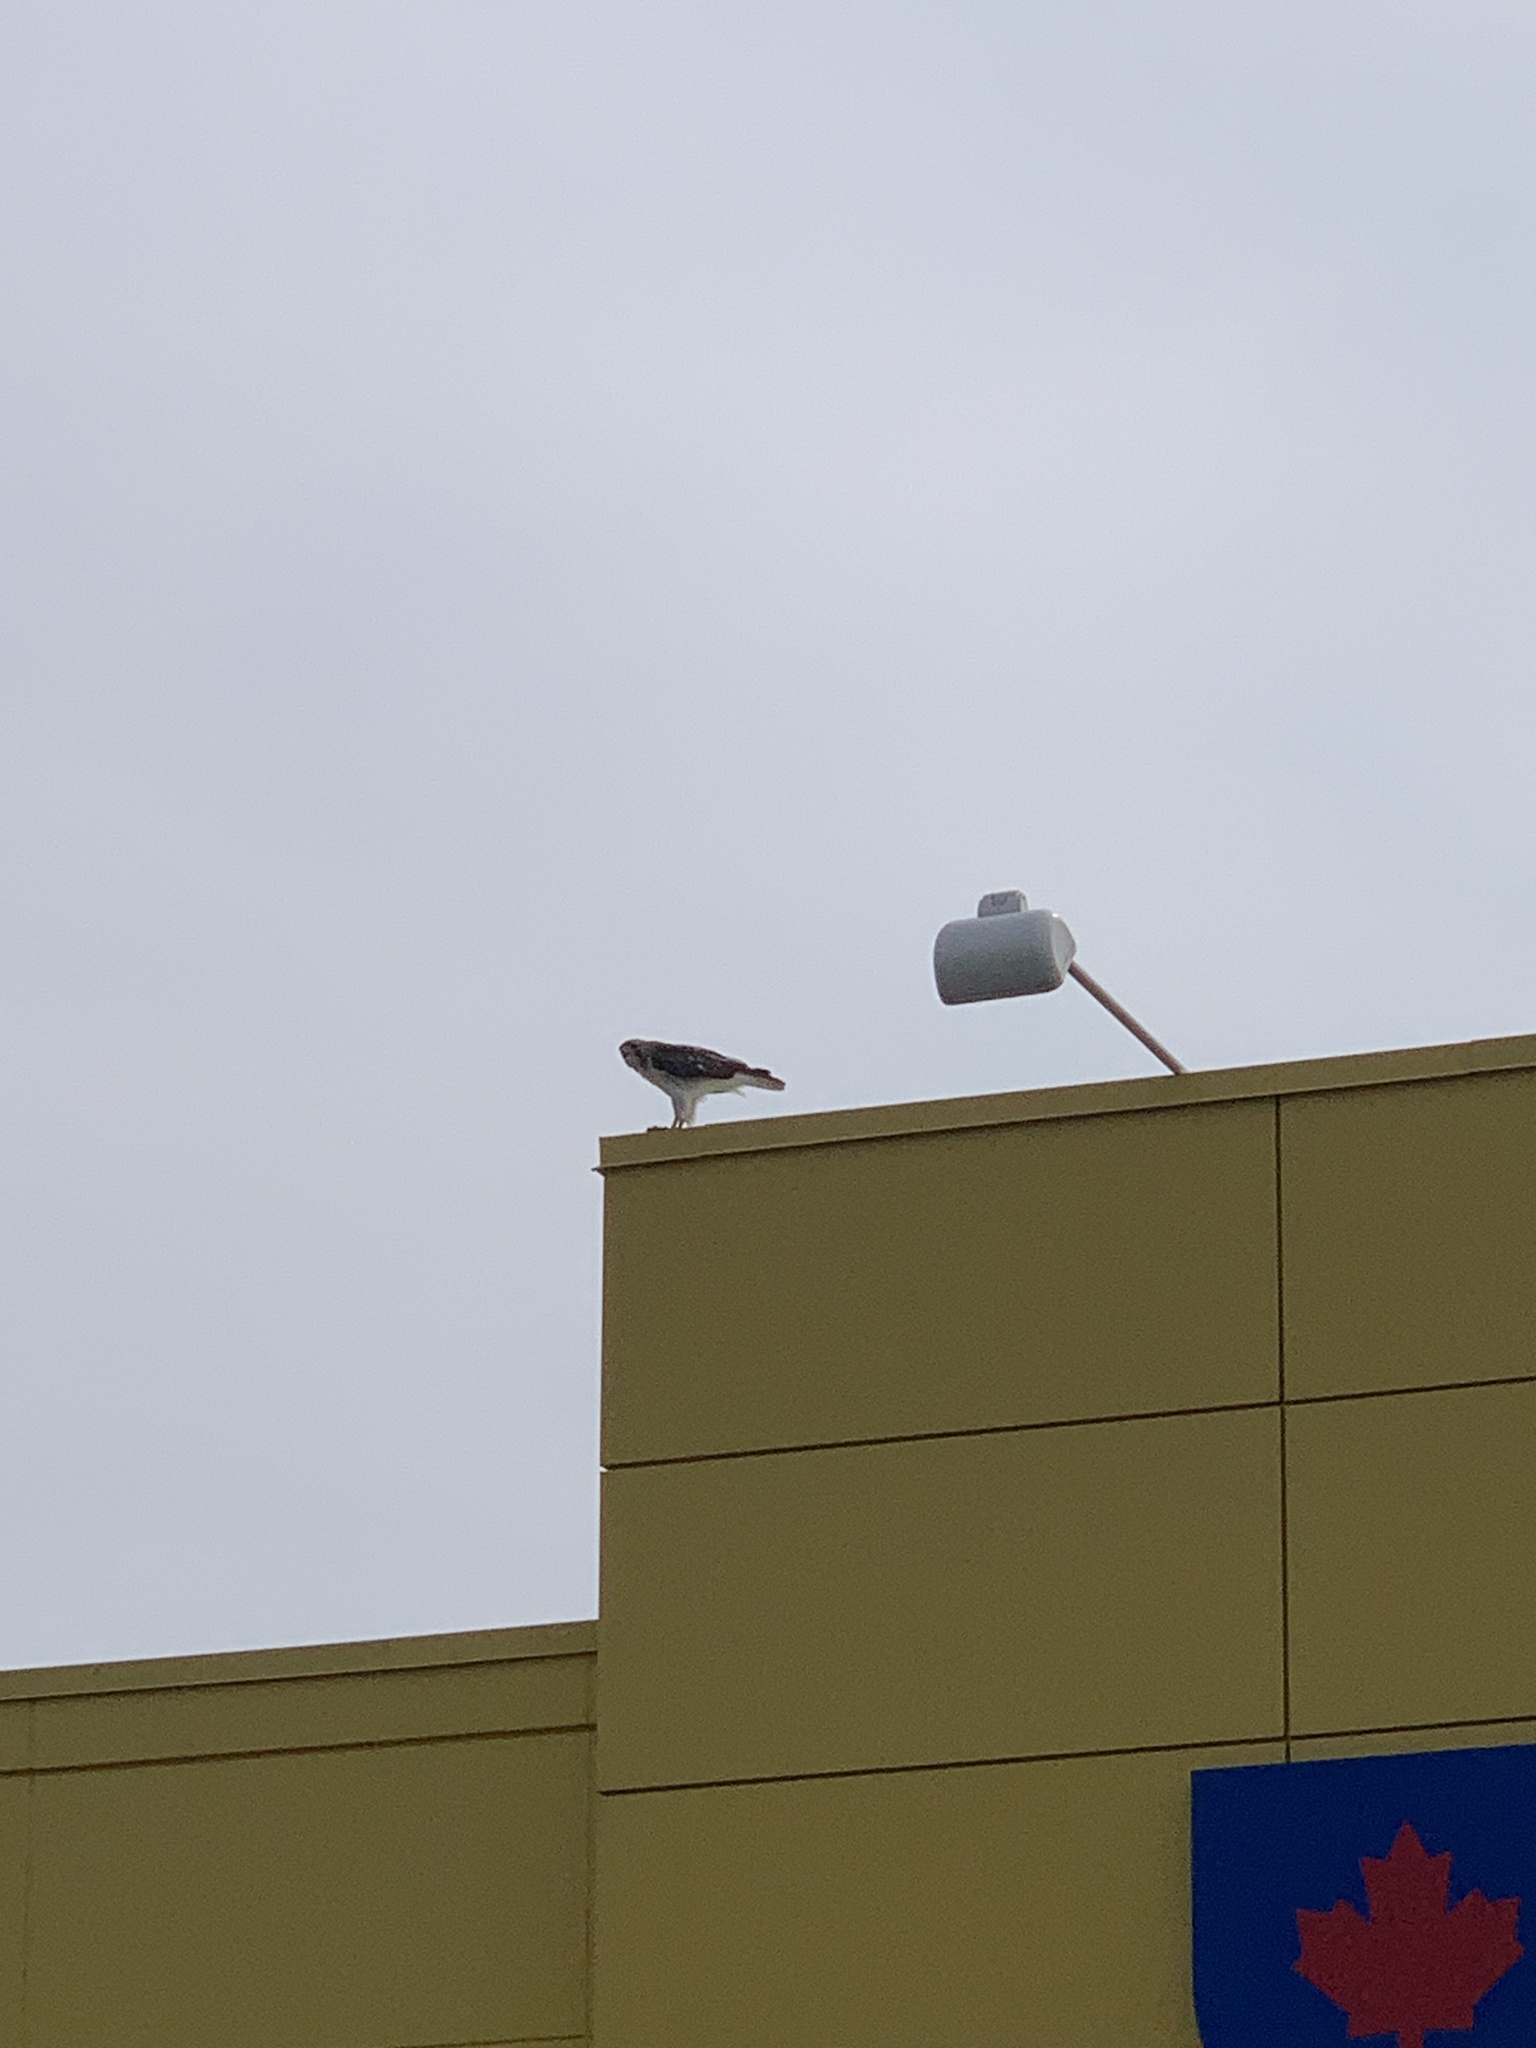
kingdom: Animalia
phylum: Chordata
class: Aves
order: Accipitriformes
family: Accipitridae
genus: Buteo
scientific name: Buteo jamaicensis
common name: Red-tailed hawk
